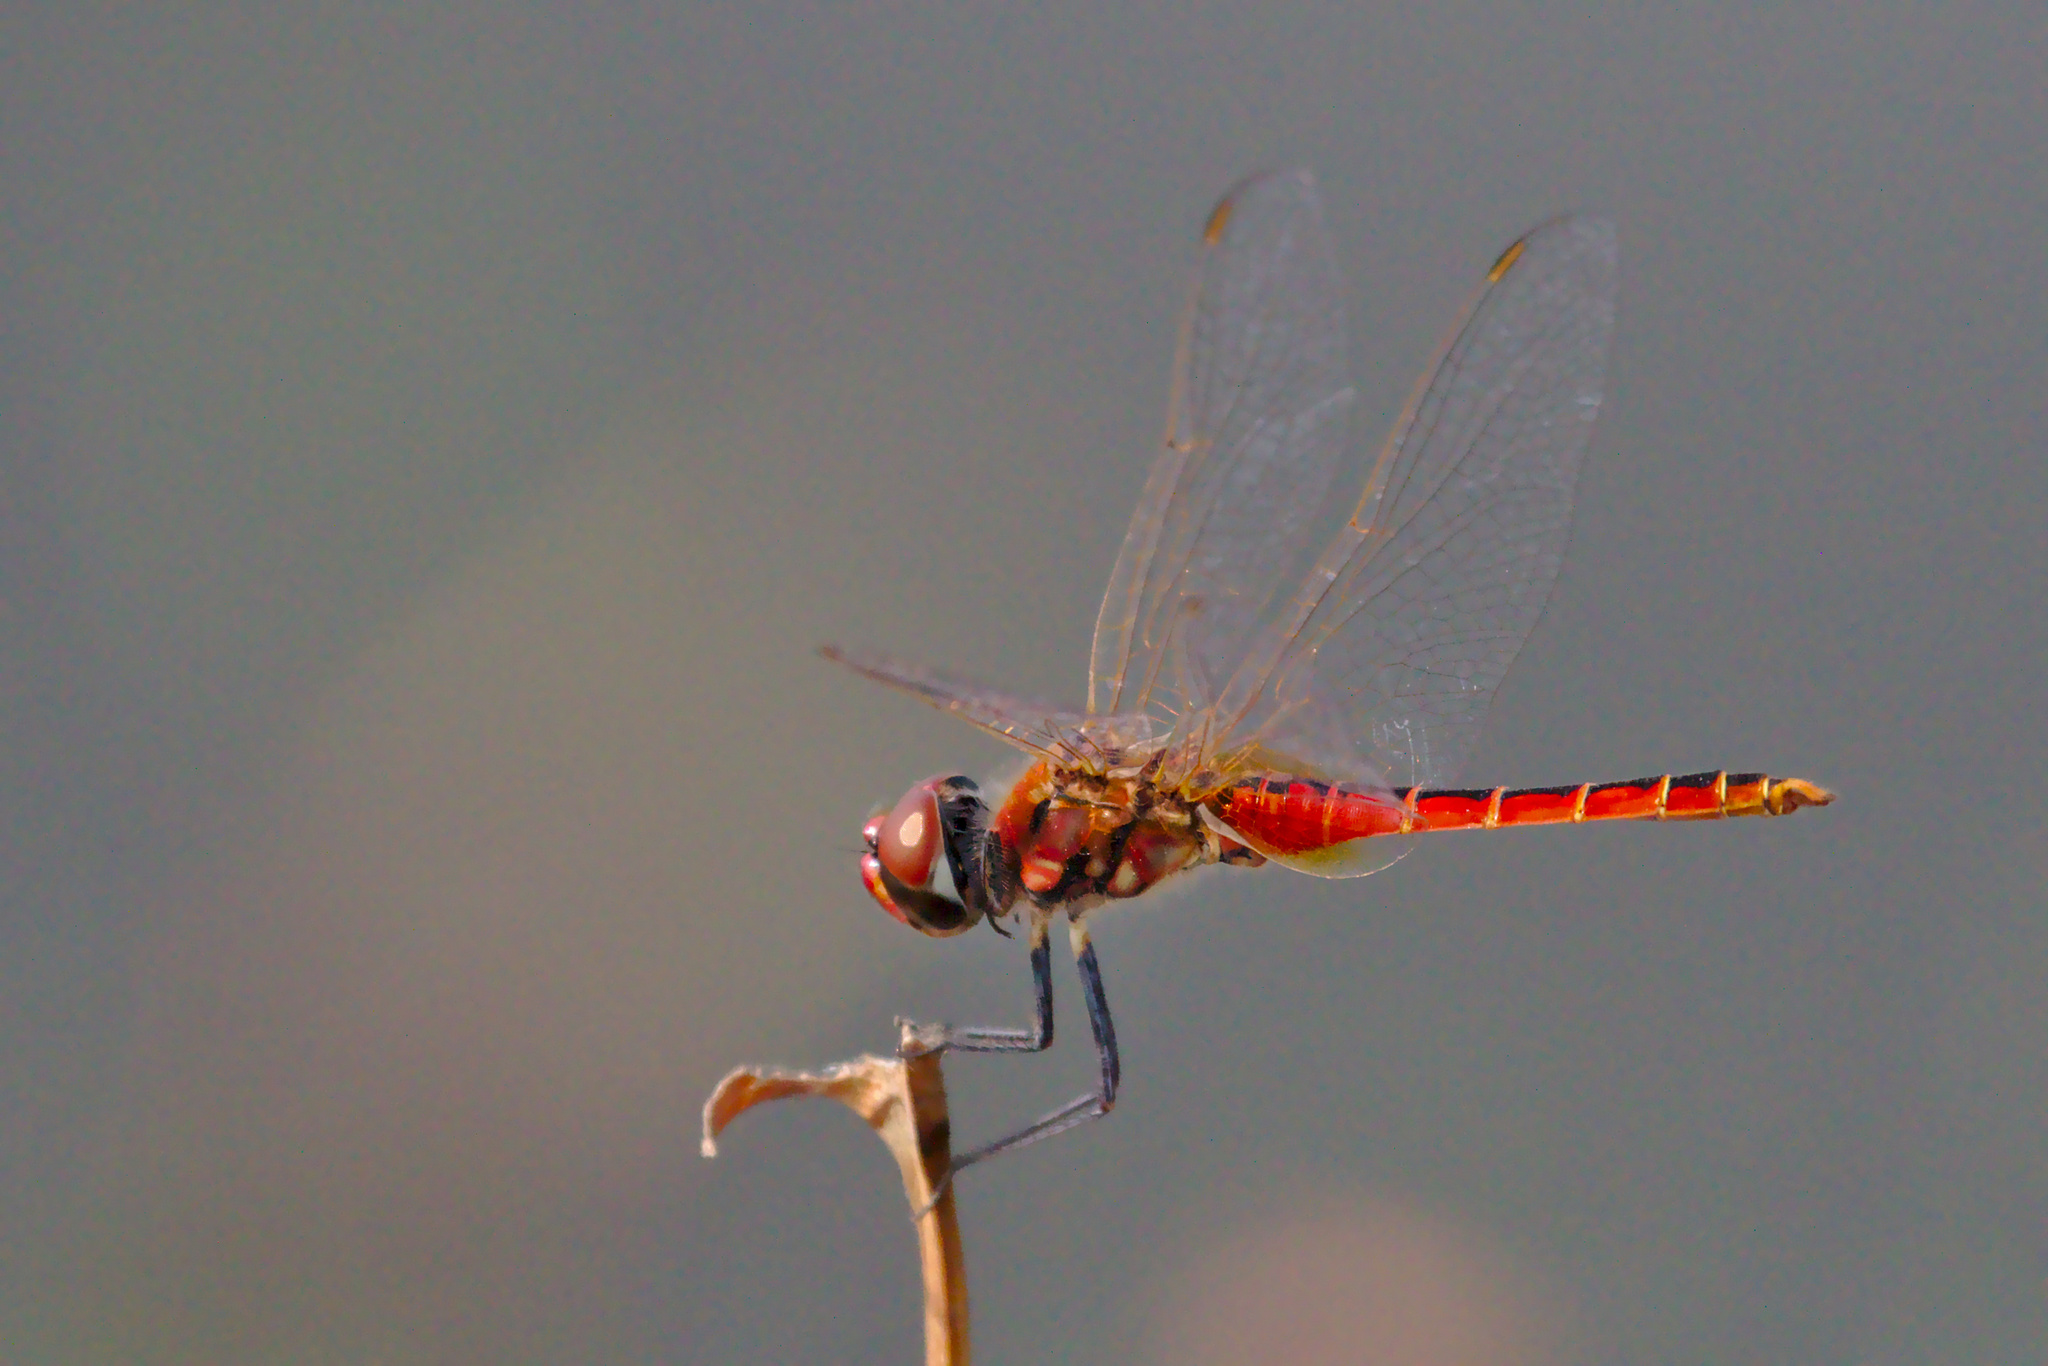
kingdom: Animalia
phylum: Arthropoda
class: Insecta
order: Odonata
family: Libellulidae
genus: Macrodiplax
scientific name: Macrodiplax cora
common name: Coastal glider
